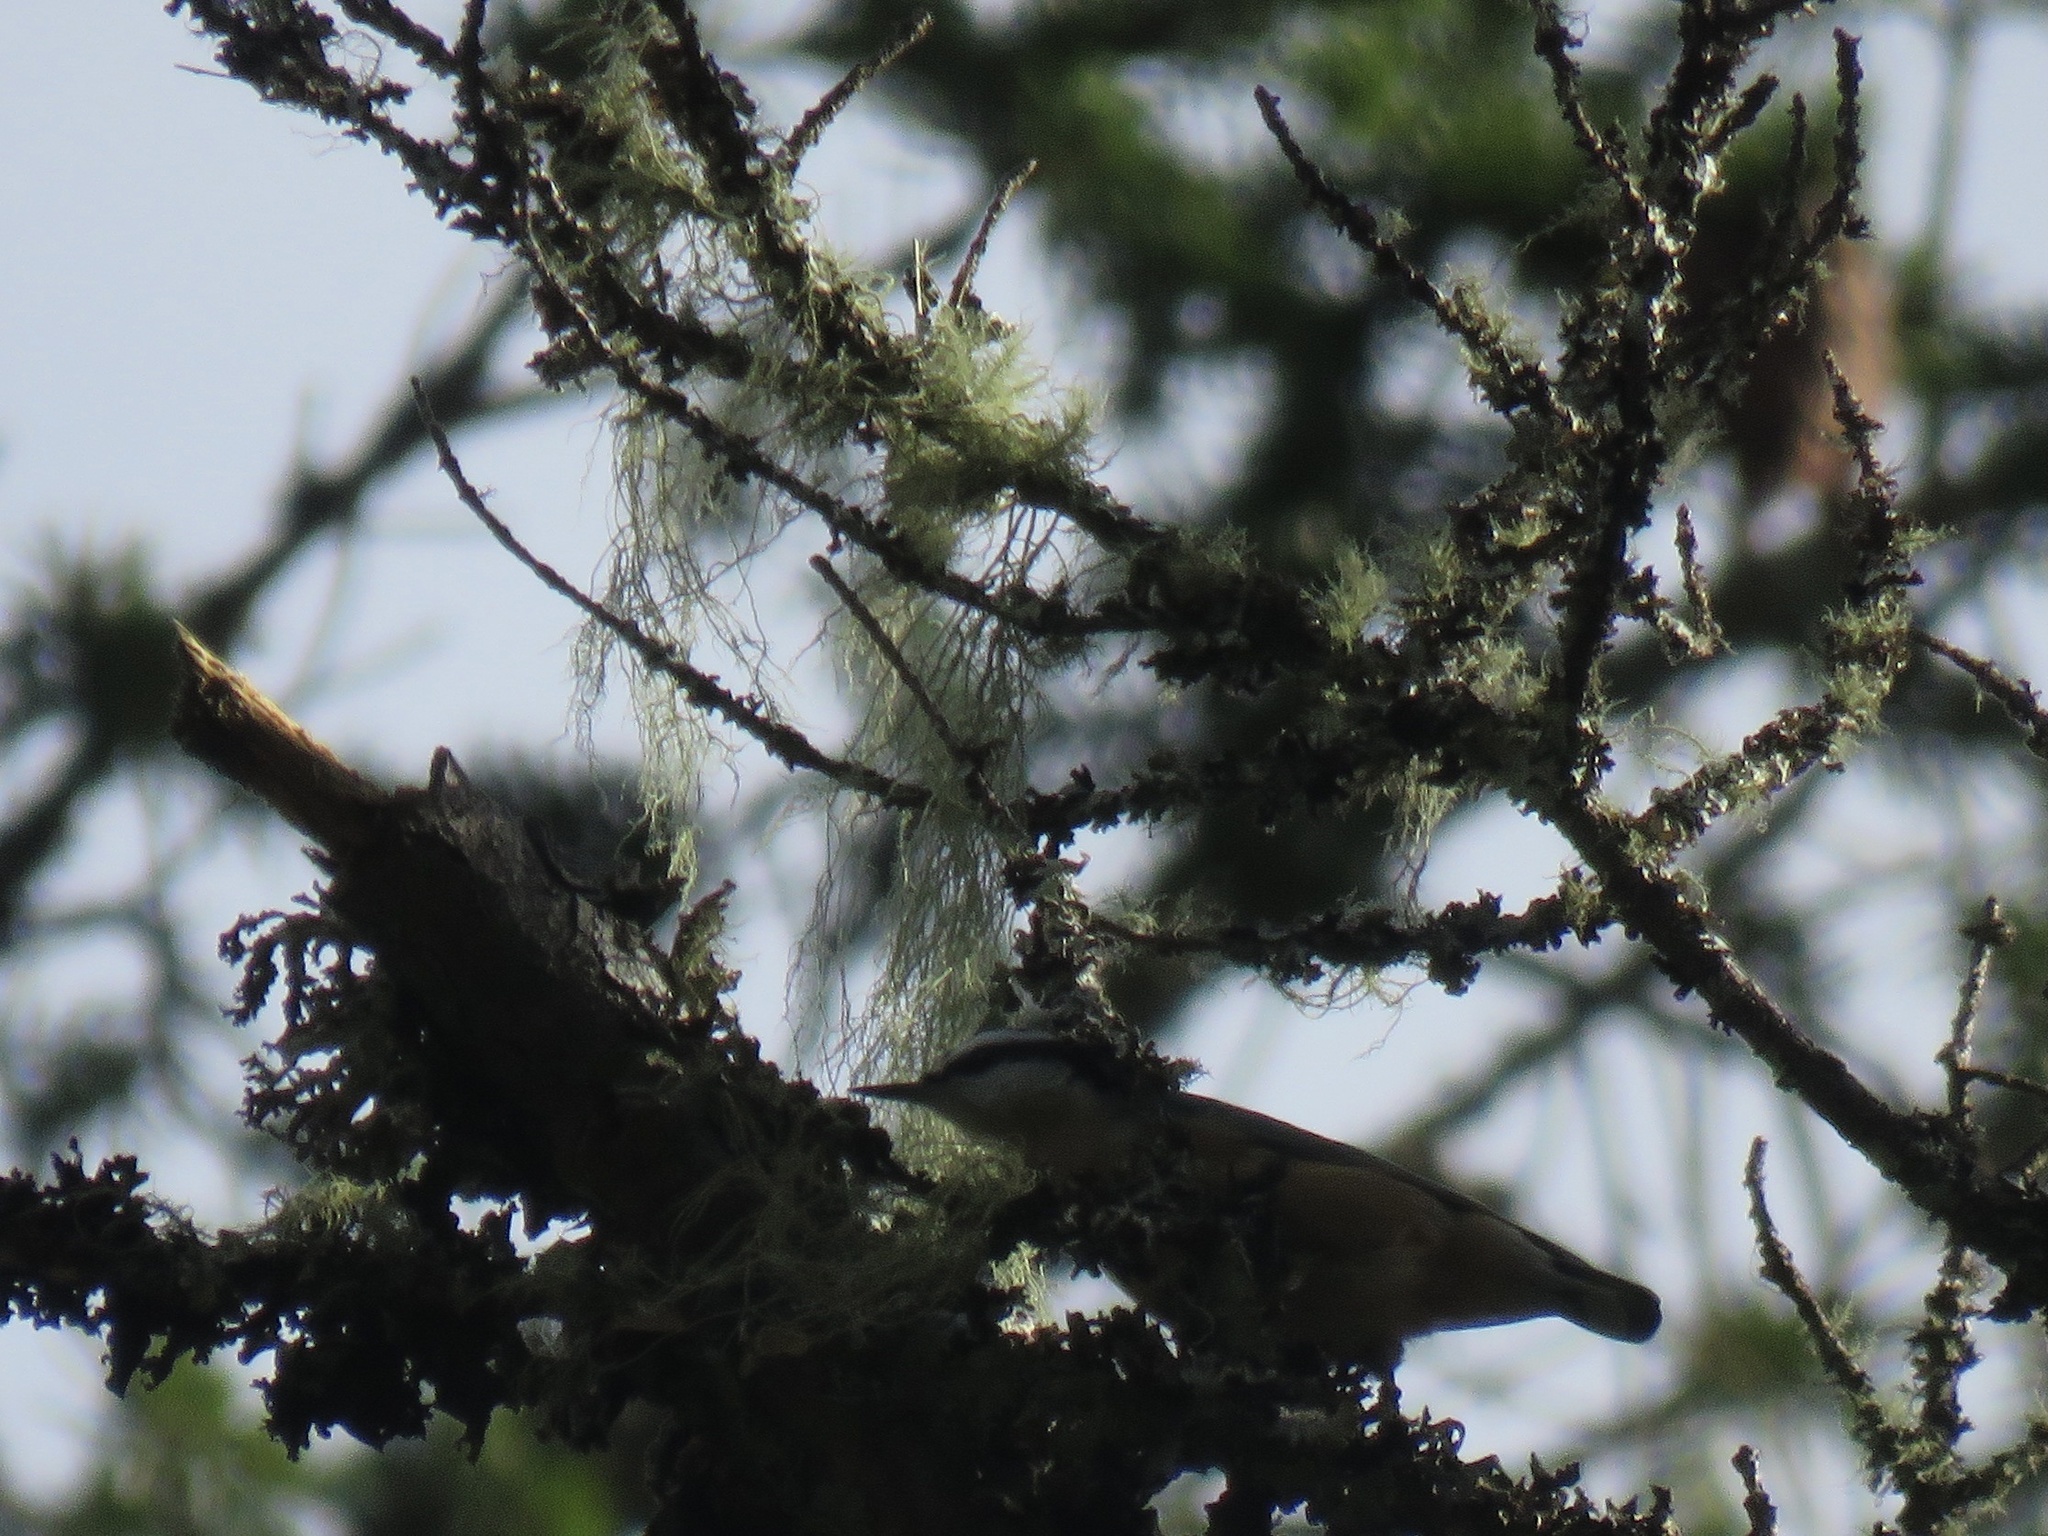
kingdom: Animalia
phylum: Chordata
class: Aves
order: Passeriformes
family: Sittidae
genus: Sitta
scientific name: Sitta canadensis
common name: Red-breasted nuthatch
